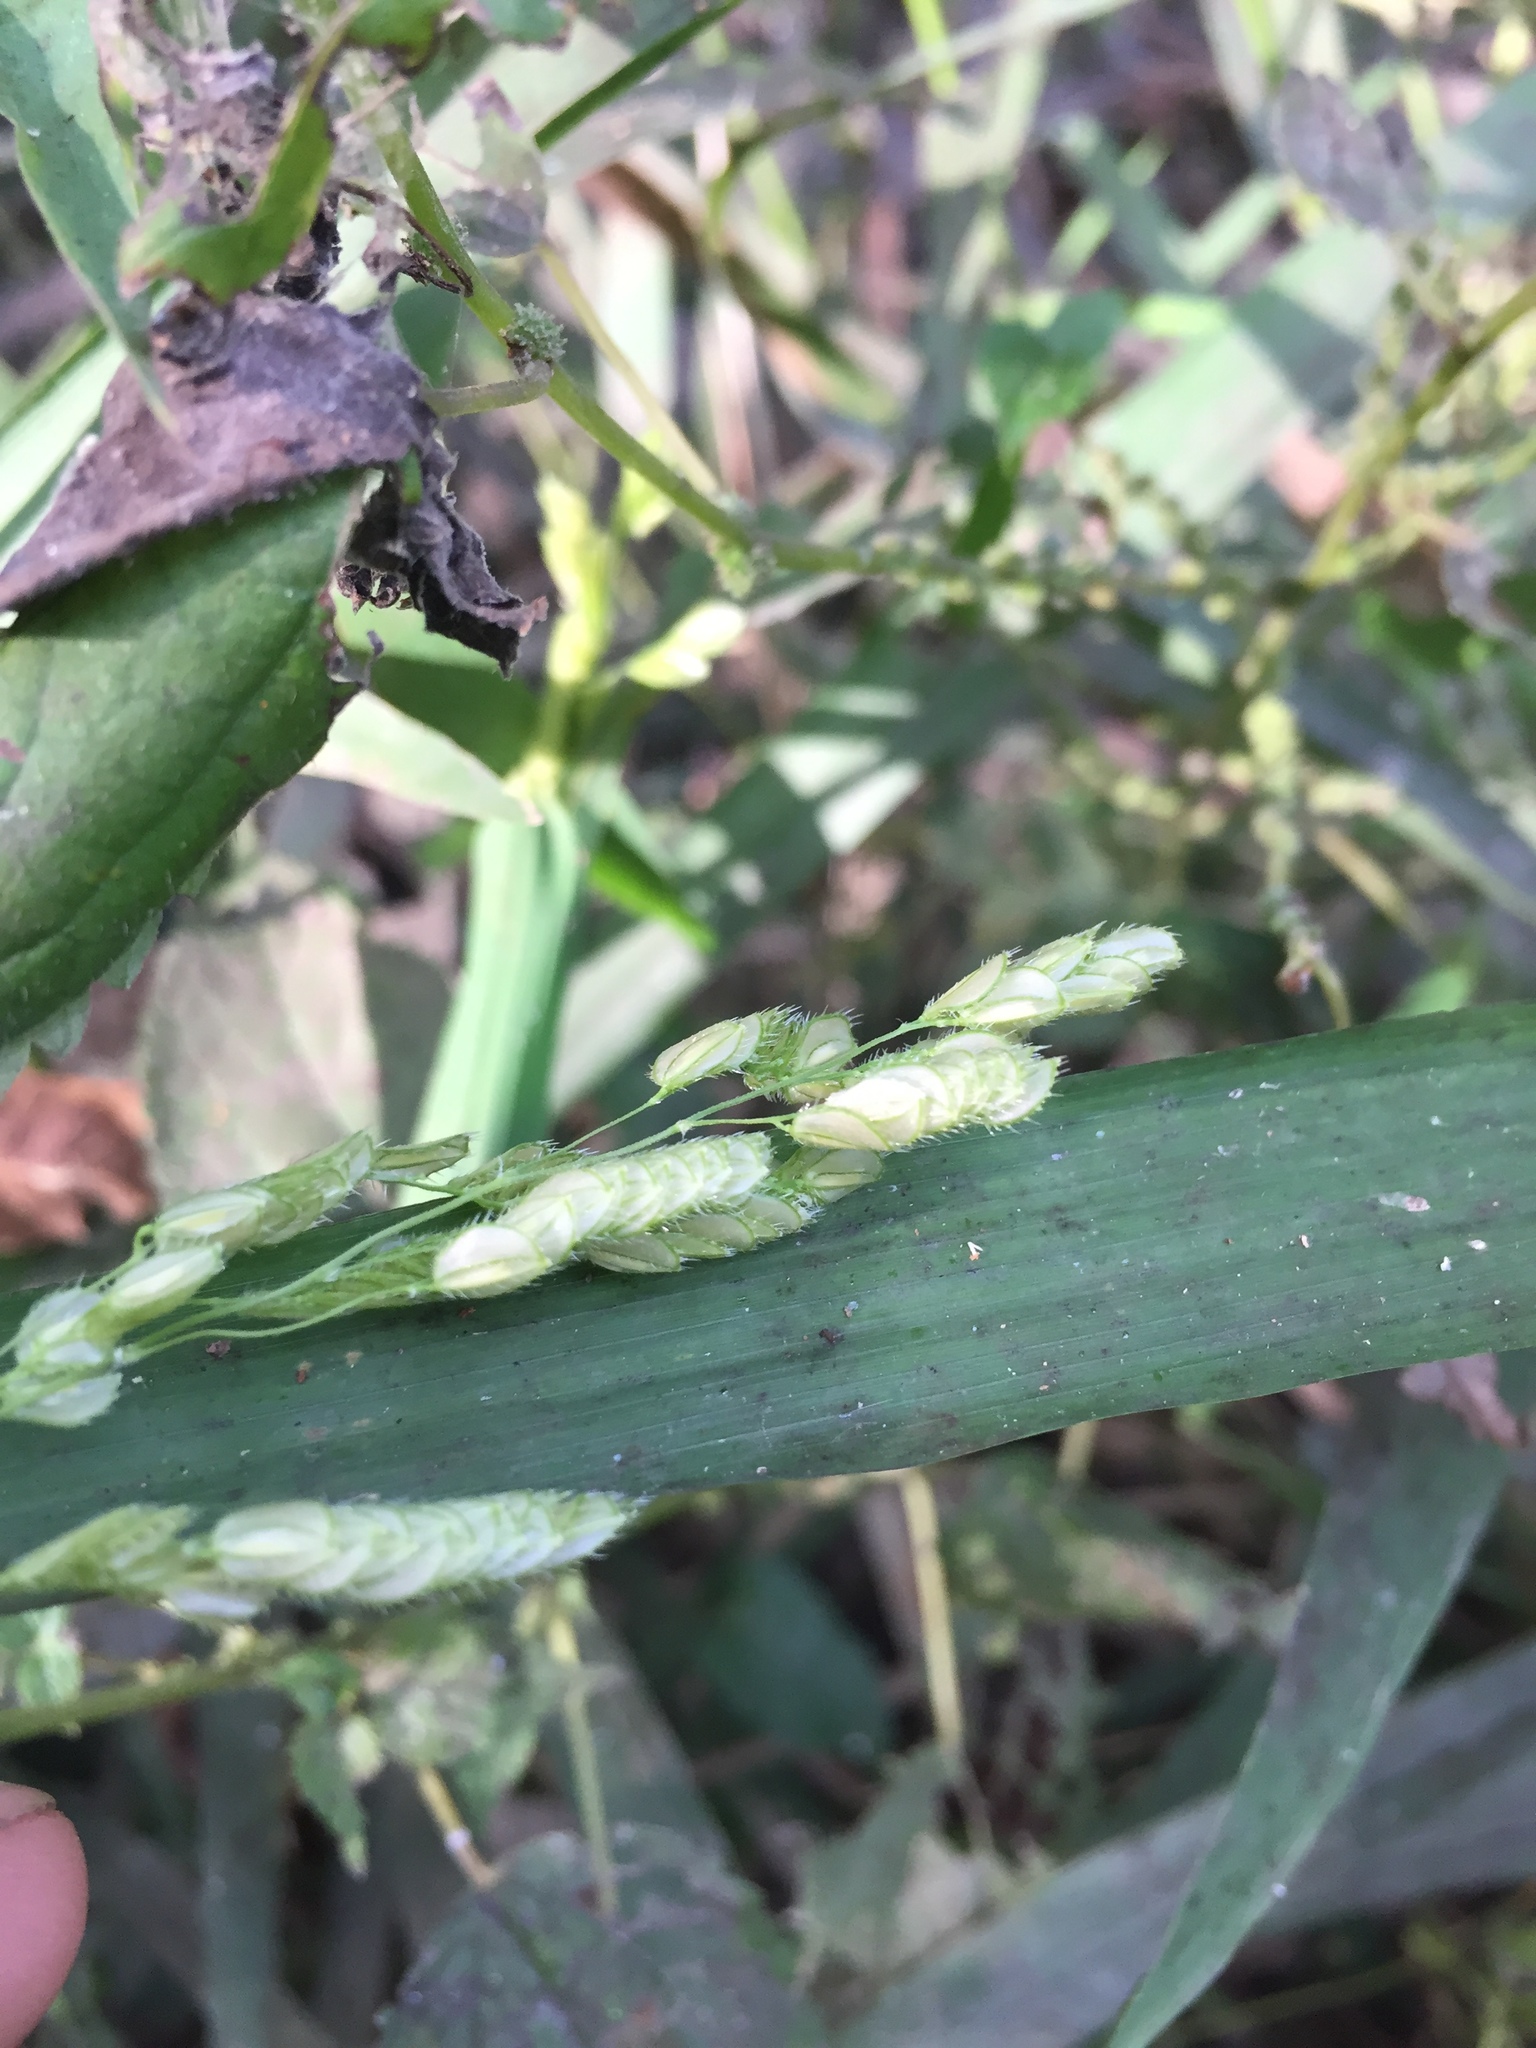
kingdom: Plantae
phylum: Tracheophyta
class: Liliopsida
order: Poales
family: Poaceae
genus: Leersia
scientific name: Leersia lenticularis
